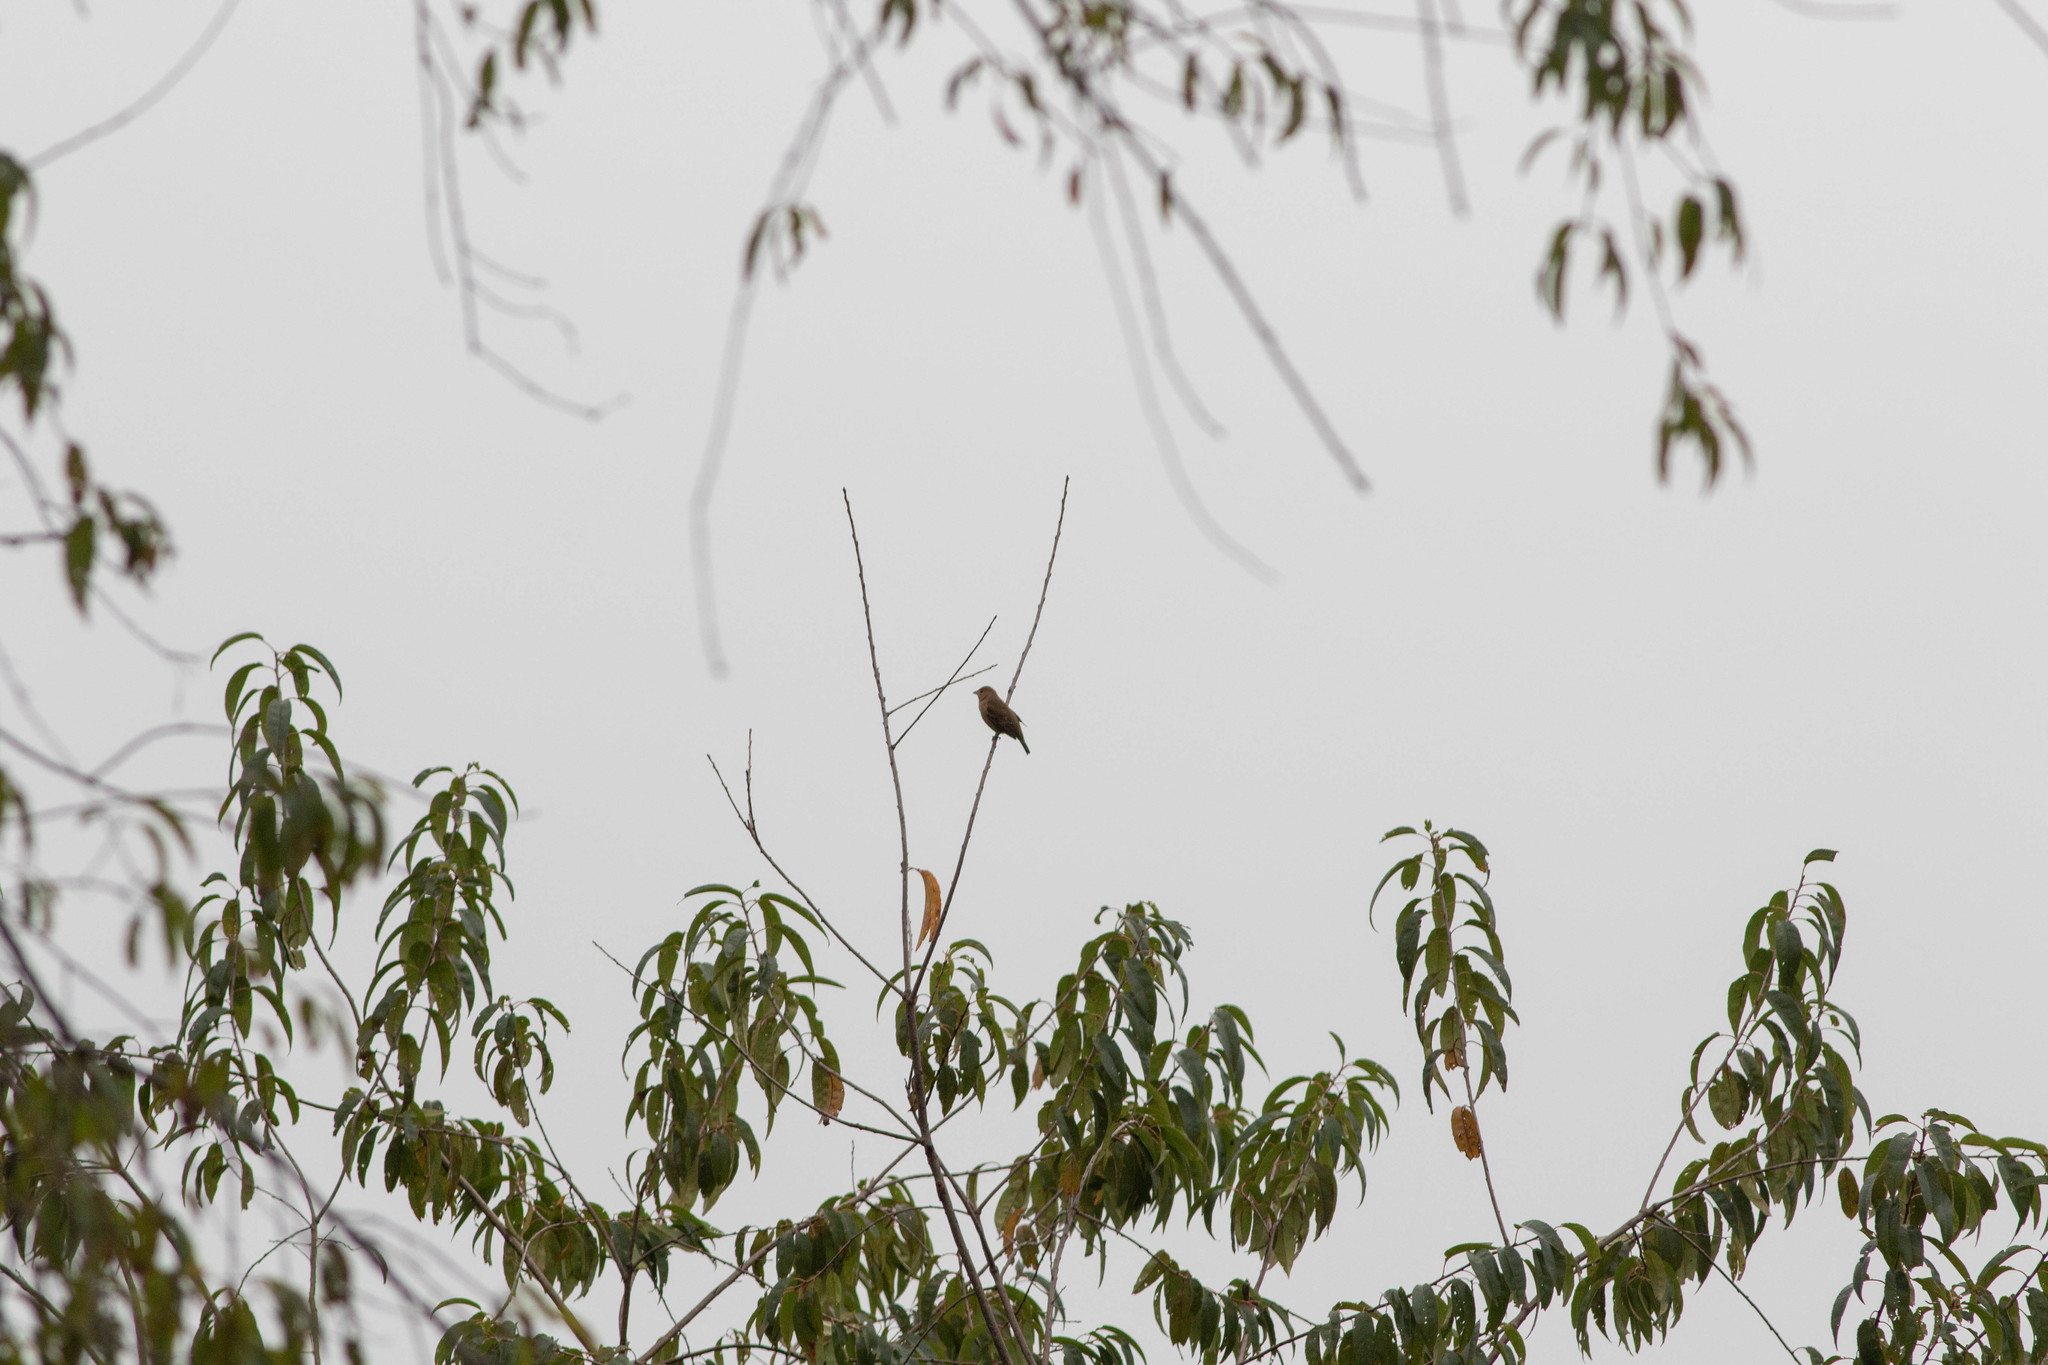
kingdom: Animalia
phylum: Chordata
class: Aves
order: Passeriformes
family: Cardinalidae
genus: Passerina
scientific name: Passerina cyanea
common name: Indigo bunting
